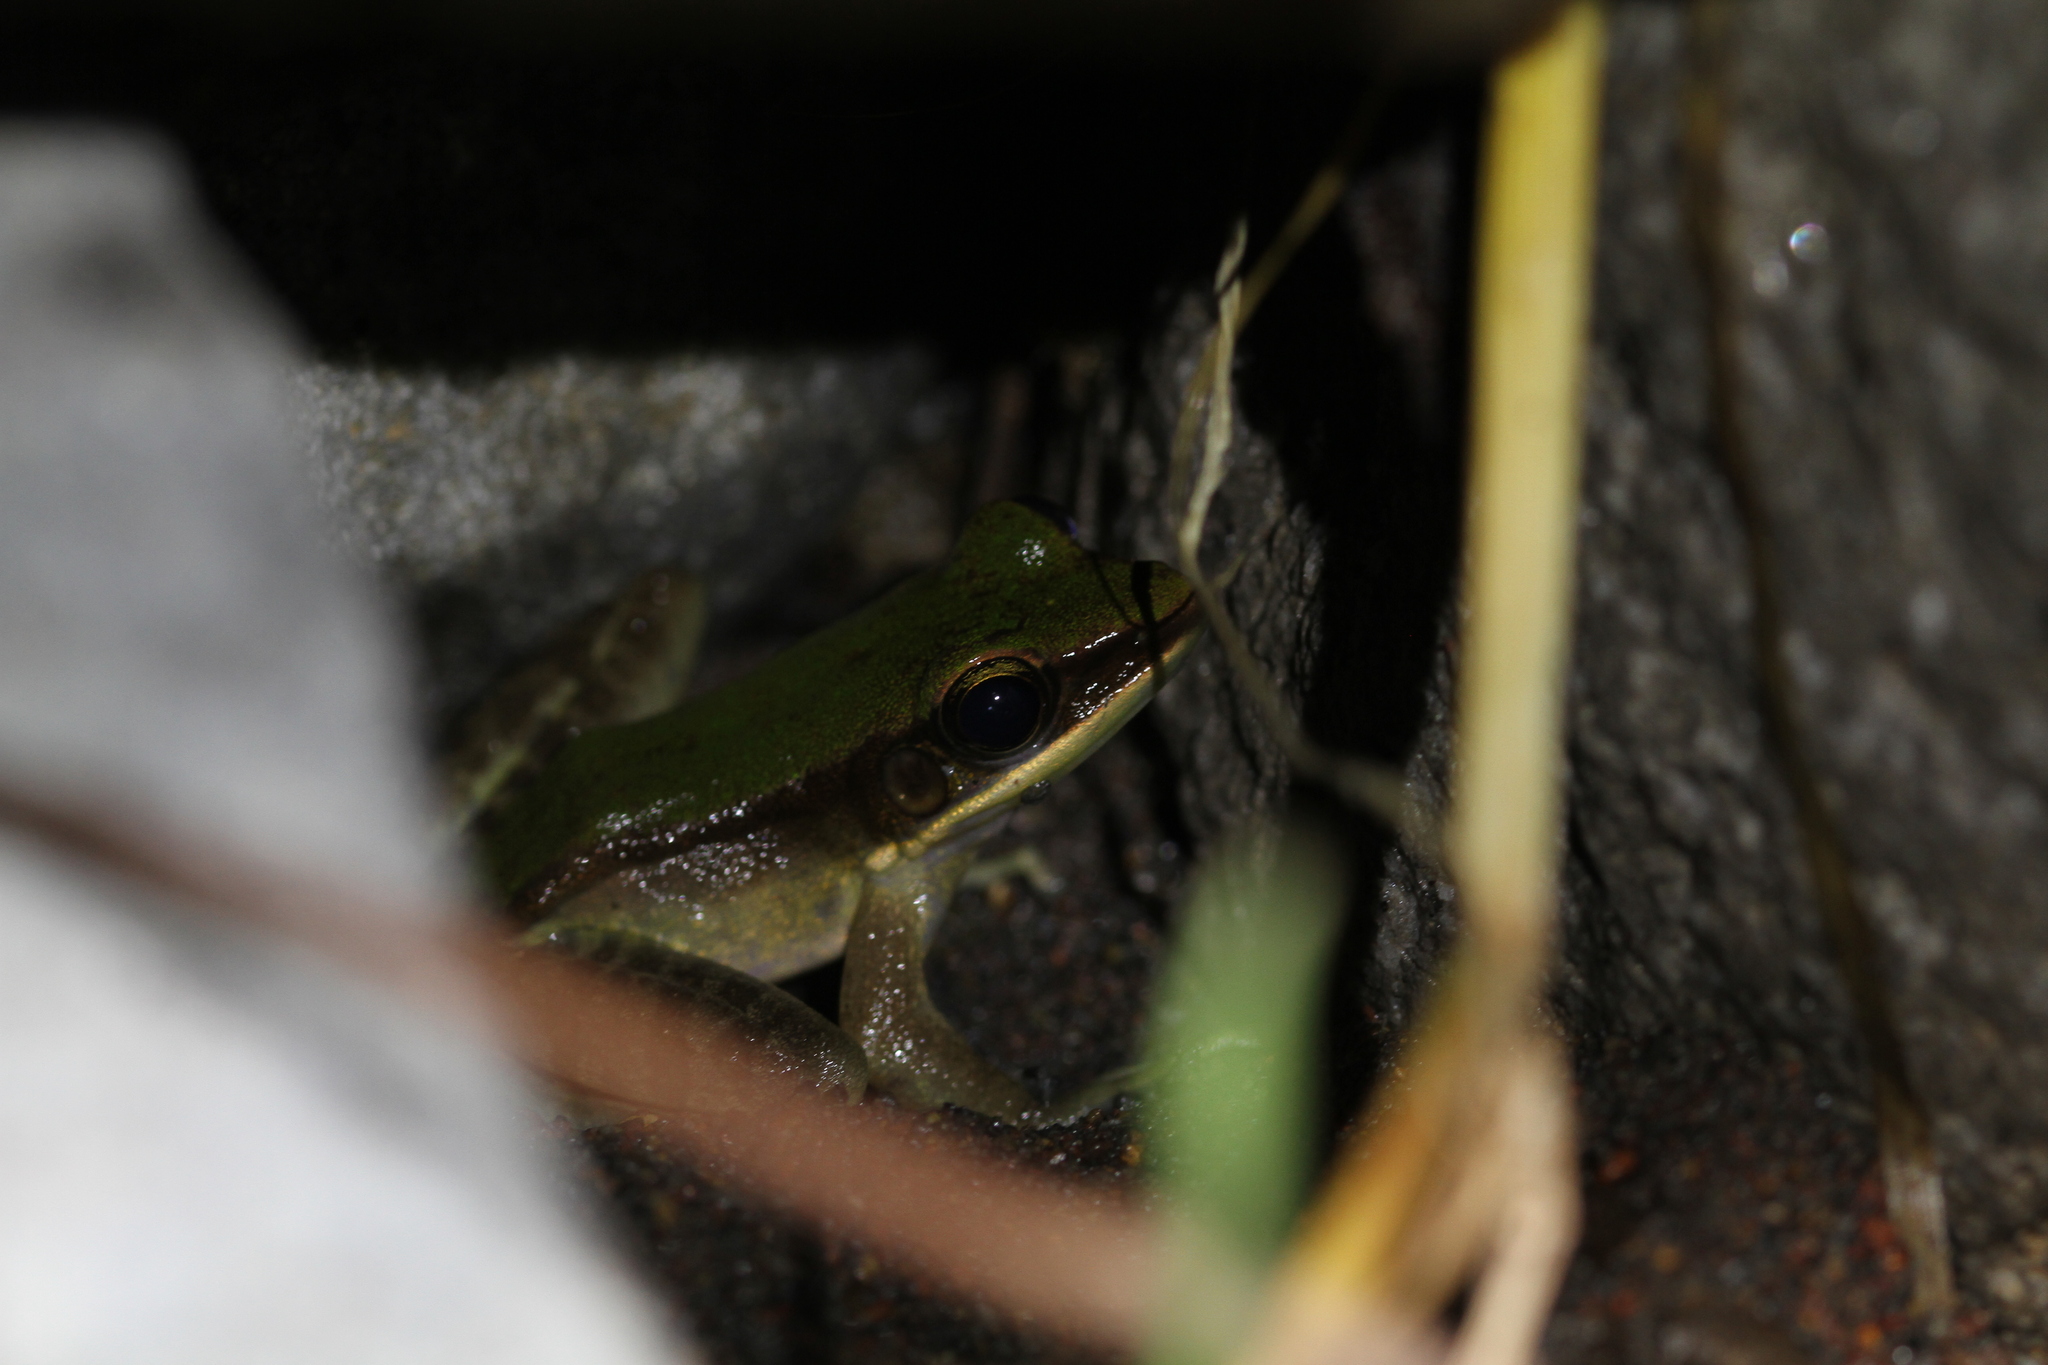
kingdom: Animalia
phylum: Chordata
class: Amphibia
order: Anura
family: Ranidae
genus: Odorrana
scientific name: Odorrana hosii
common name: Green tree frog
